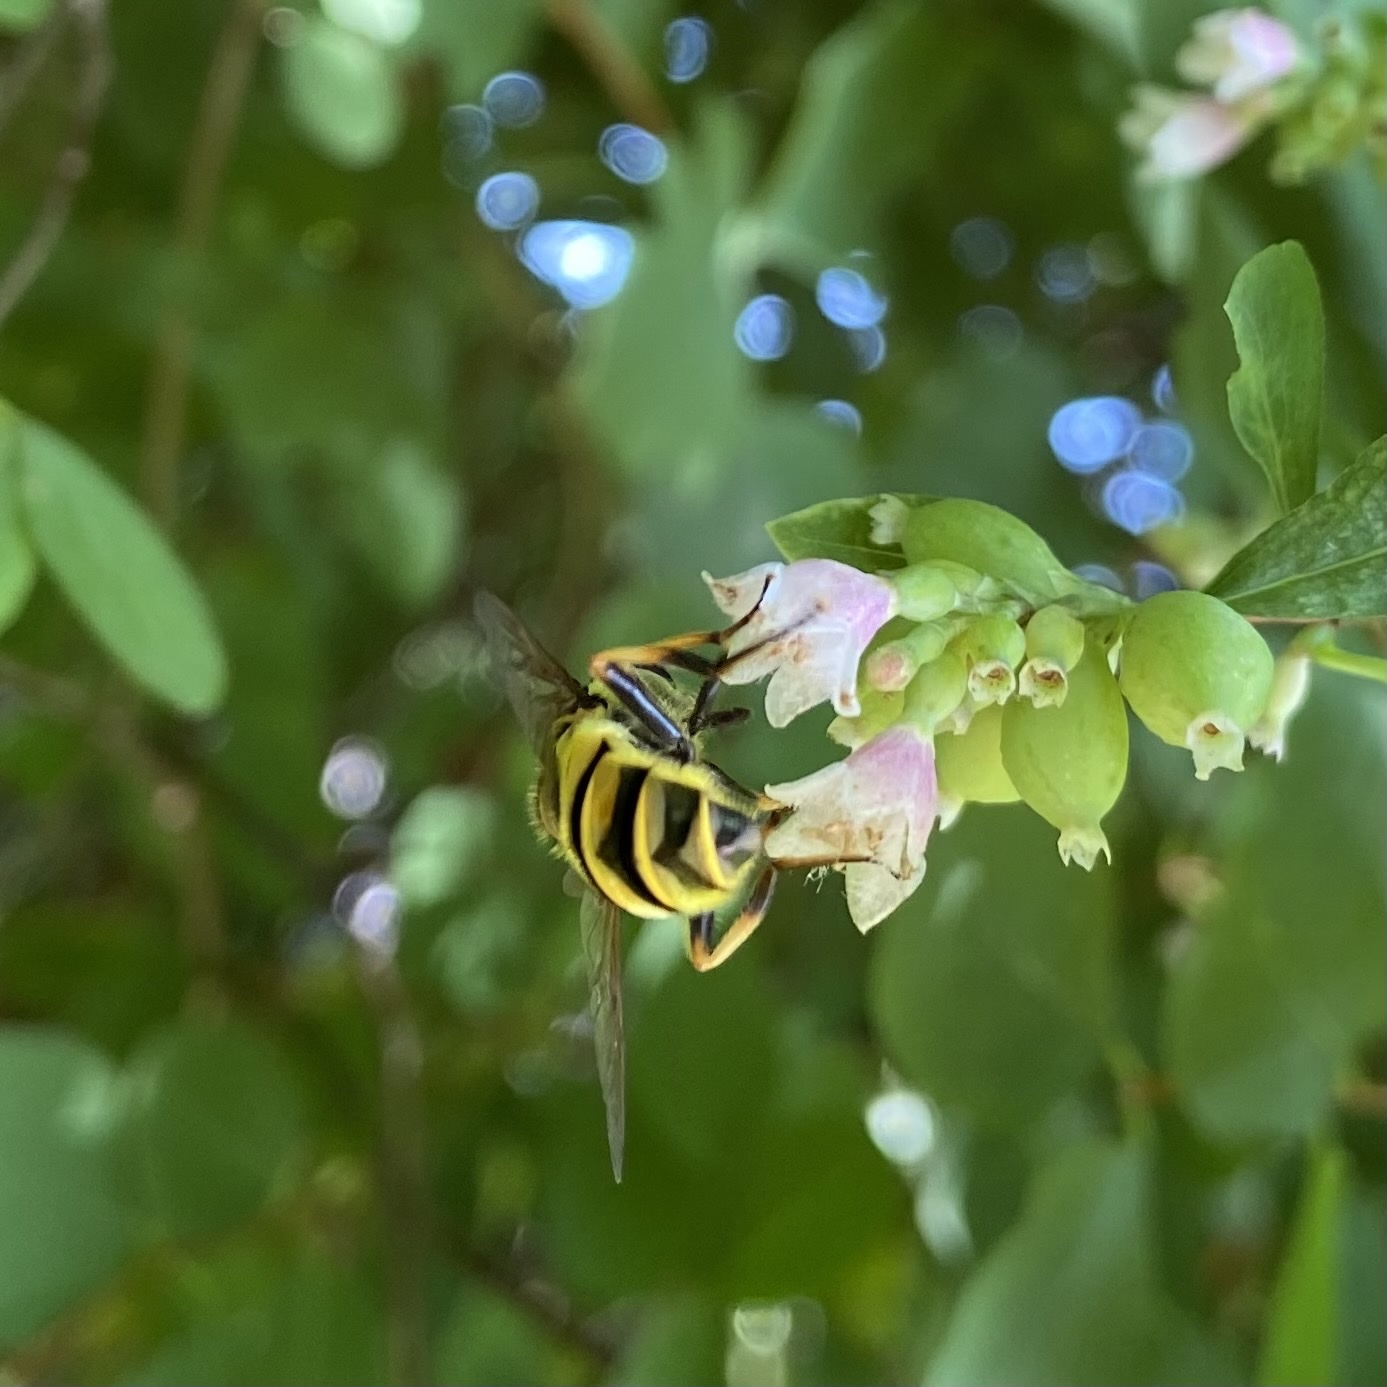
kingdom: Animalia
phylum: Arthropoda
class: Insecta
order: Diptera
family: Syrphidae
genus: Myathropa
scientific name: Myathropa florea
